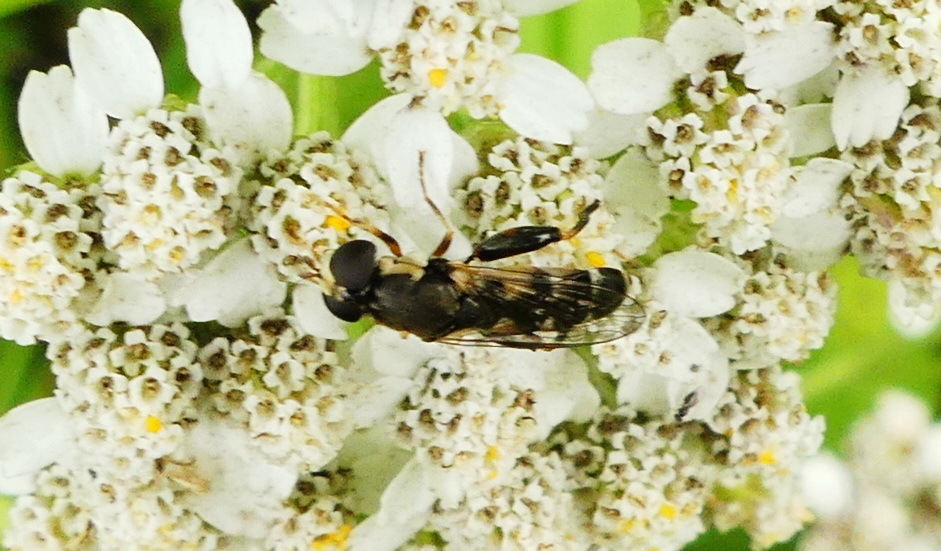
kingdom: Animalia
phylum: Arthropoda
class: Insecta
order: Diptera
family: Syrphidae
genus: Syritta
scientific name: Syritta pipiens
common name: Hover fly
